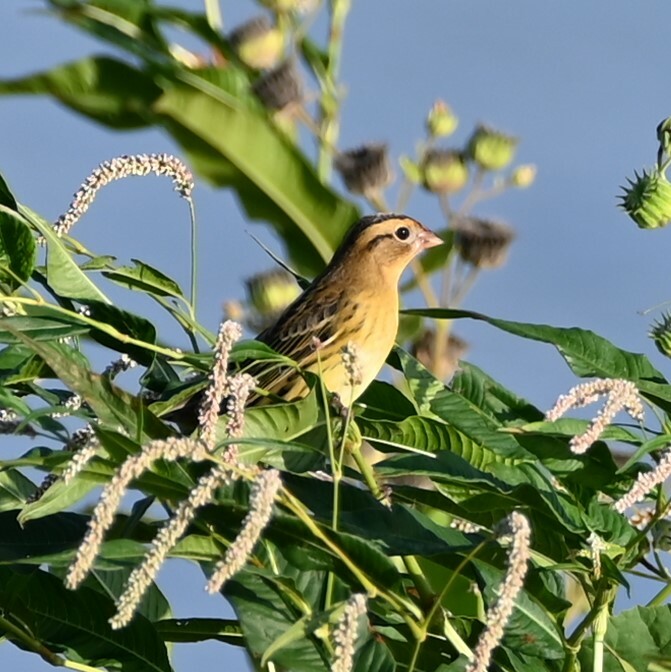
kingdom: Animalia
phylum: Chordata
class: Aves
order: Passeriformes
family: Icteridae
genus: Dolichonyx
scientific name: Dolichonyx oryzivorus
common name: Bobolink
